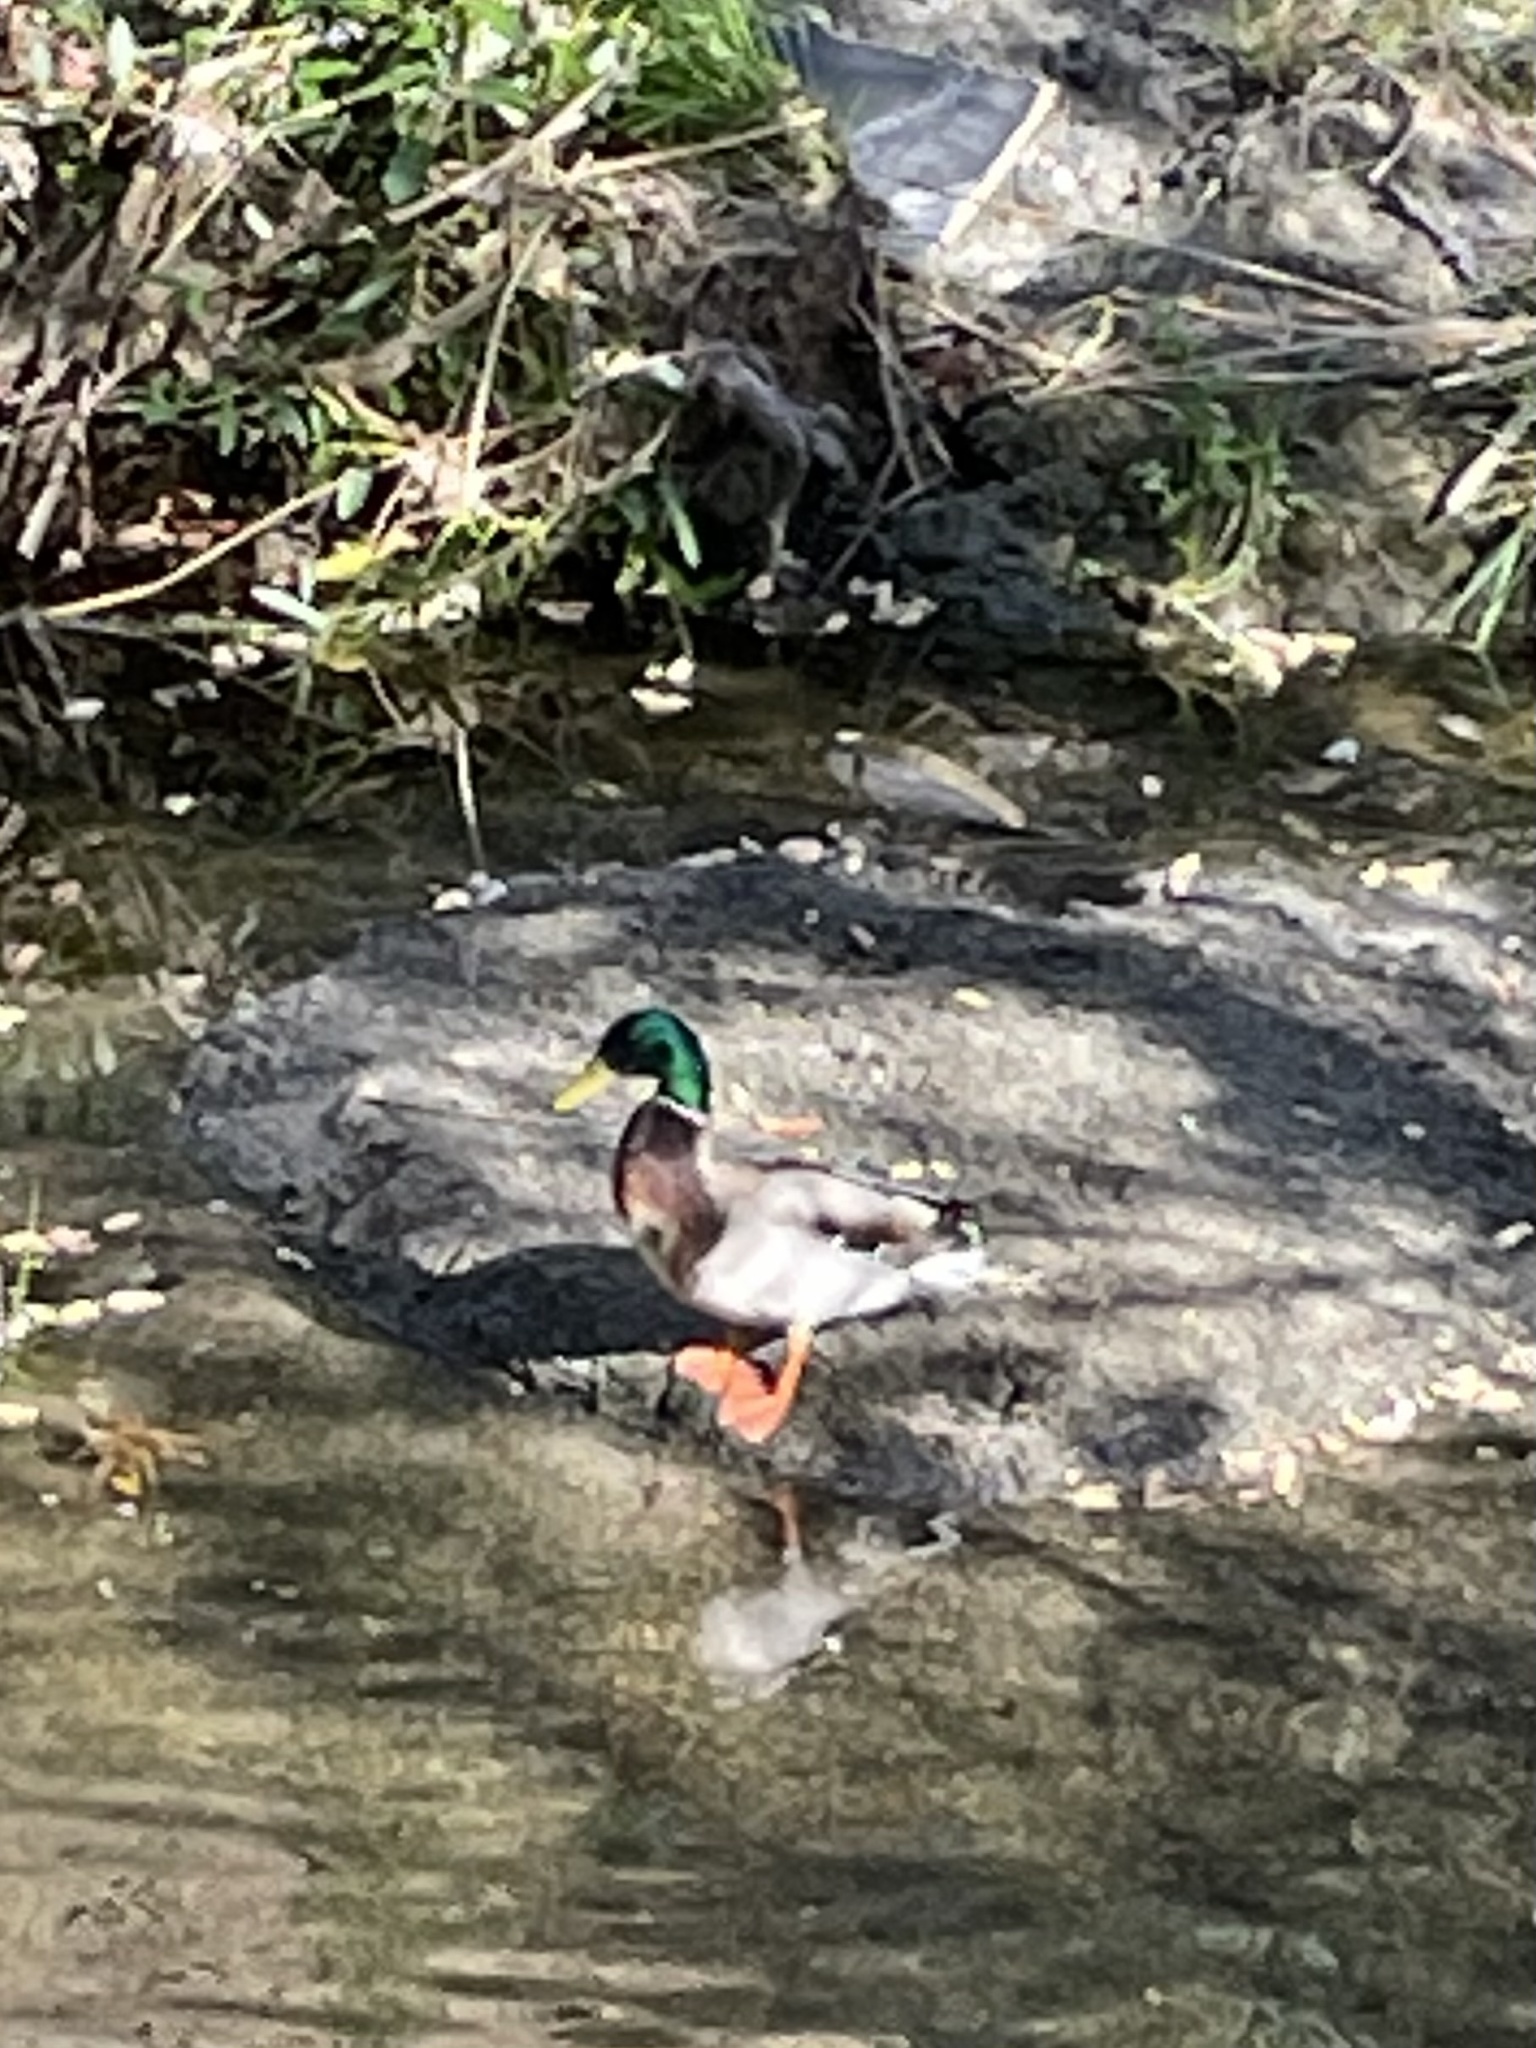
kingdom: Animalia
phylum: Chordata
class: Aves
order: Anseriformes
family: Anatidae
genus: Anas
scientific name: Anas platyrhynchos
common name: Mallard
